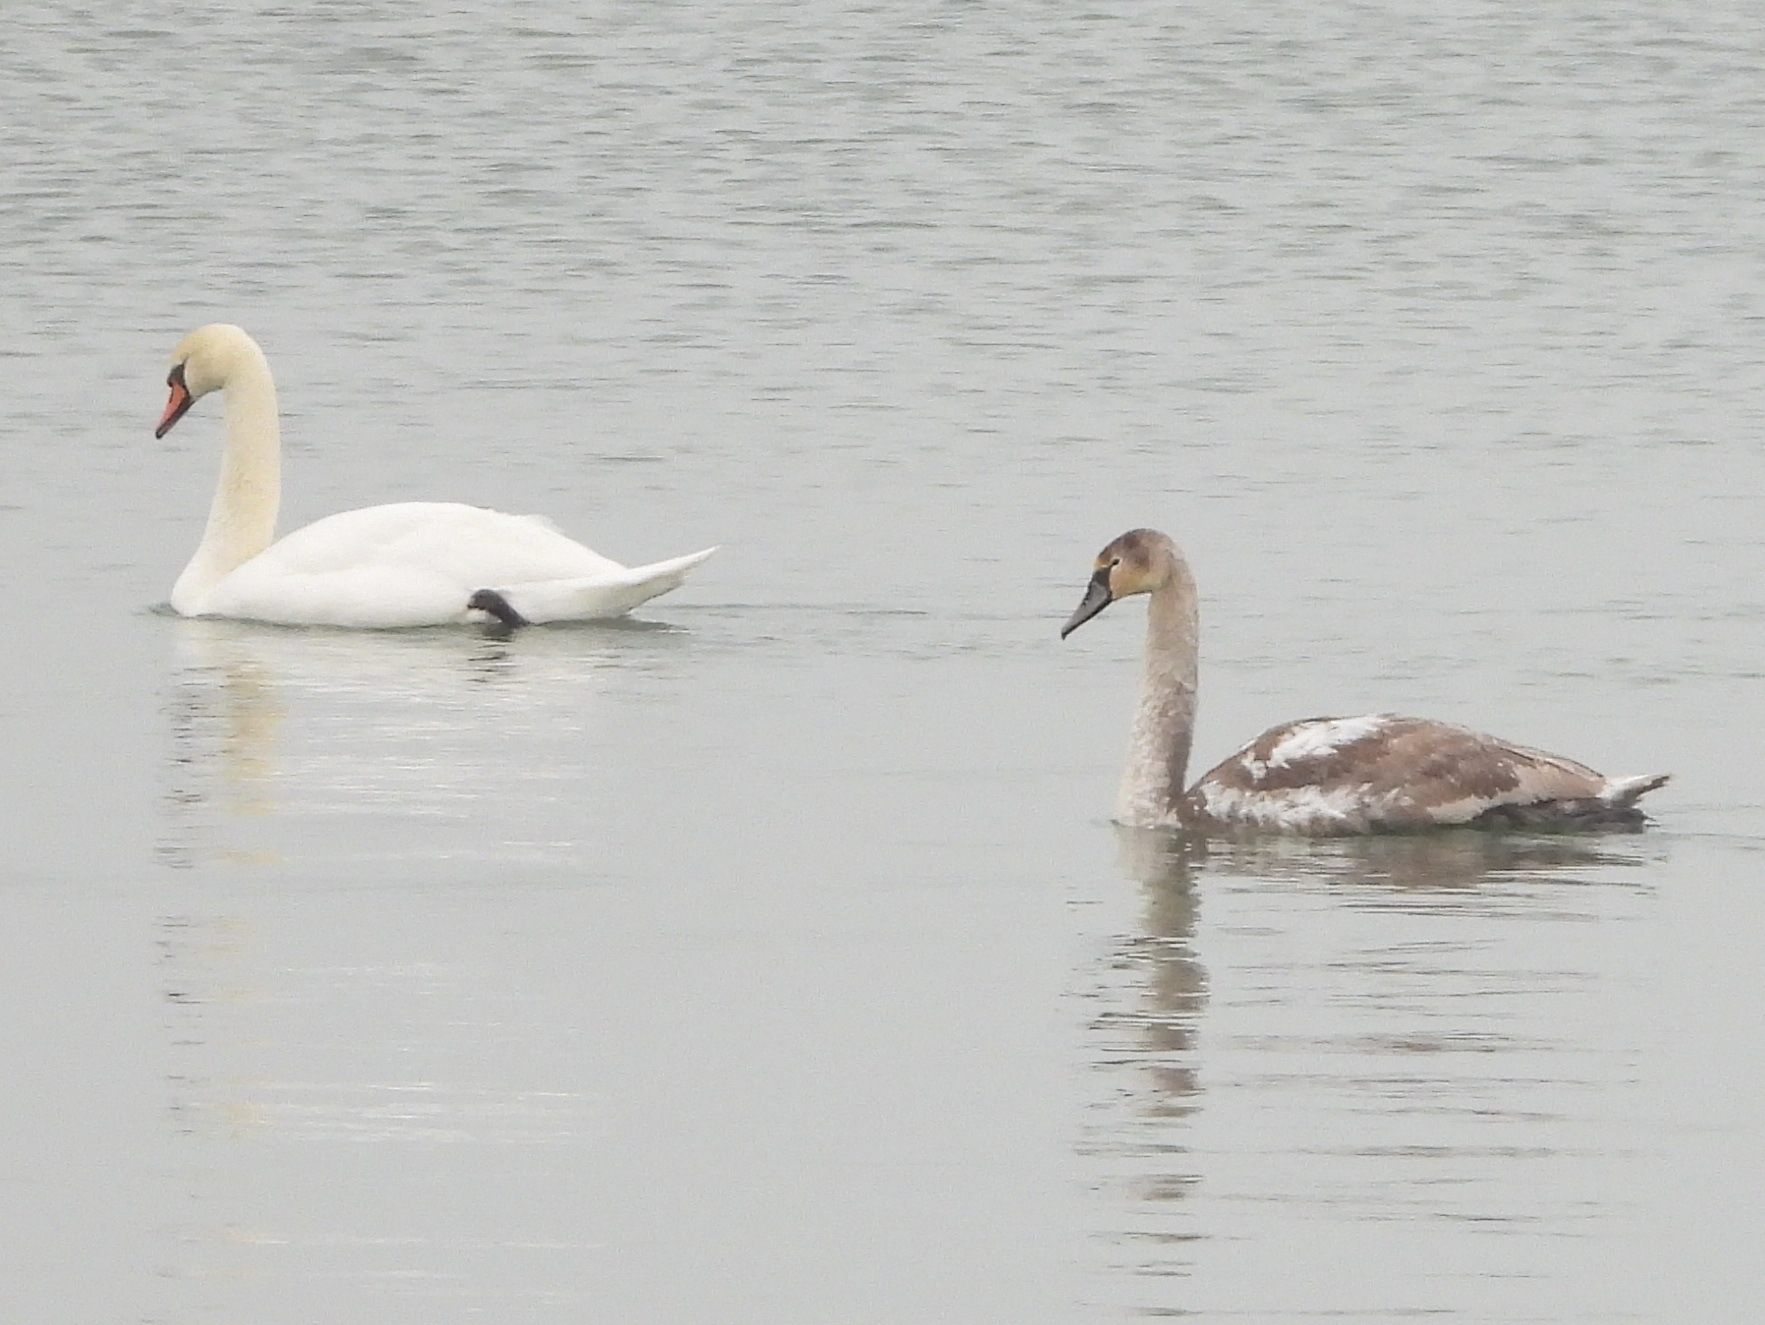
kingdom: Animalia
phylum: Chordata
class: Aves
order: Anseriformes
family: Anatidae
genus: Cygnus
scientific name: Cygnus olor
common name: Mute swan
